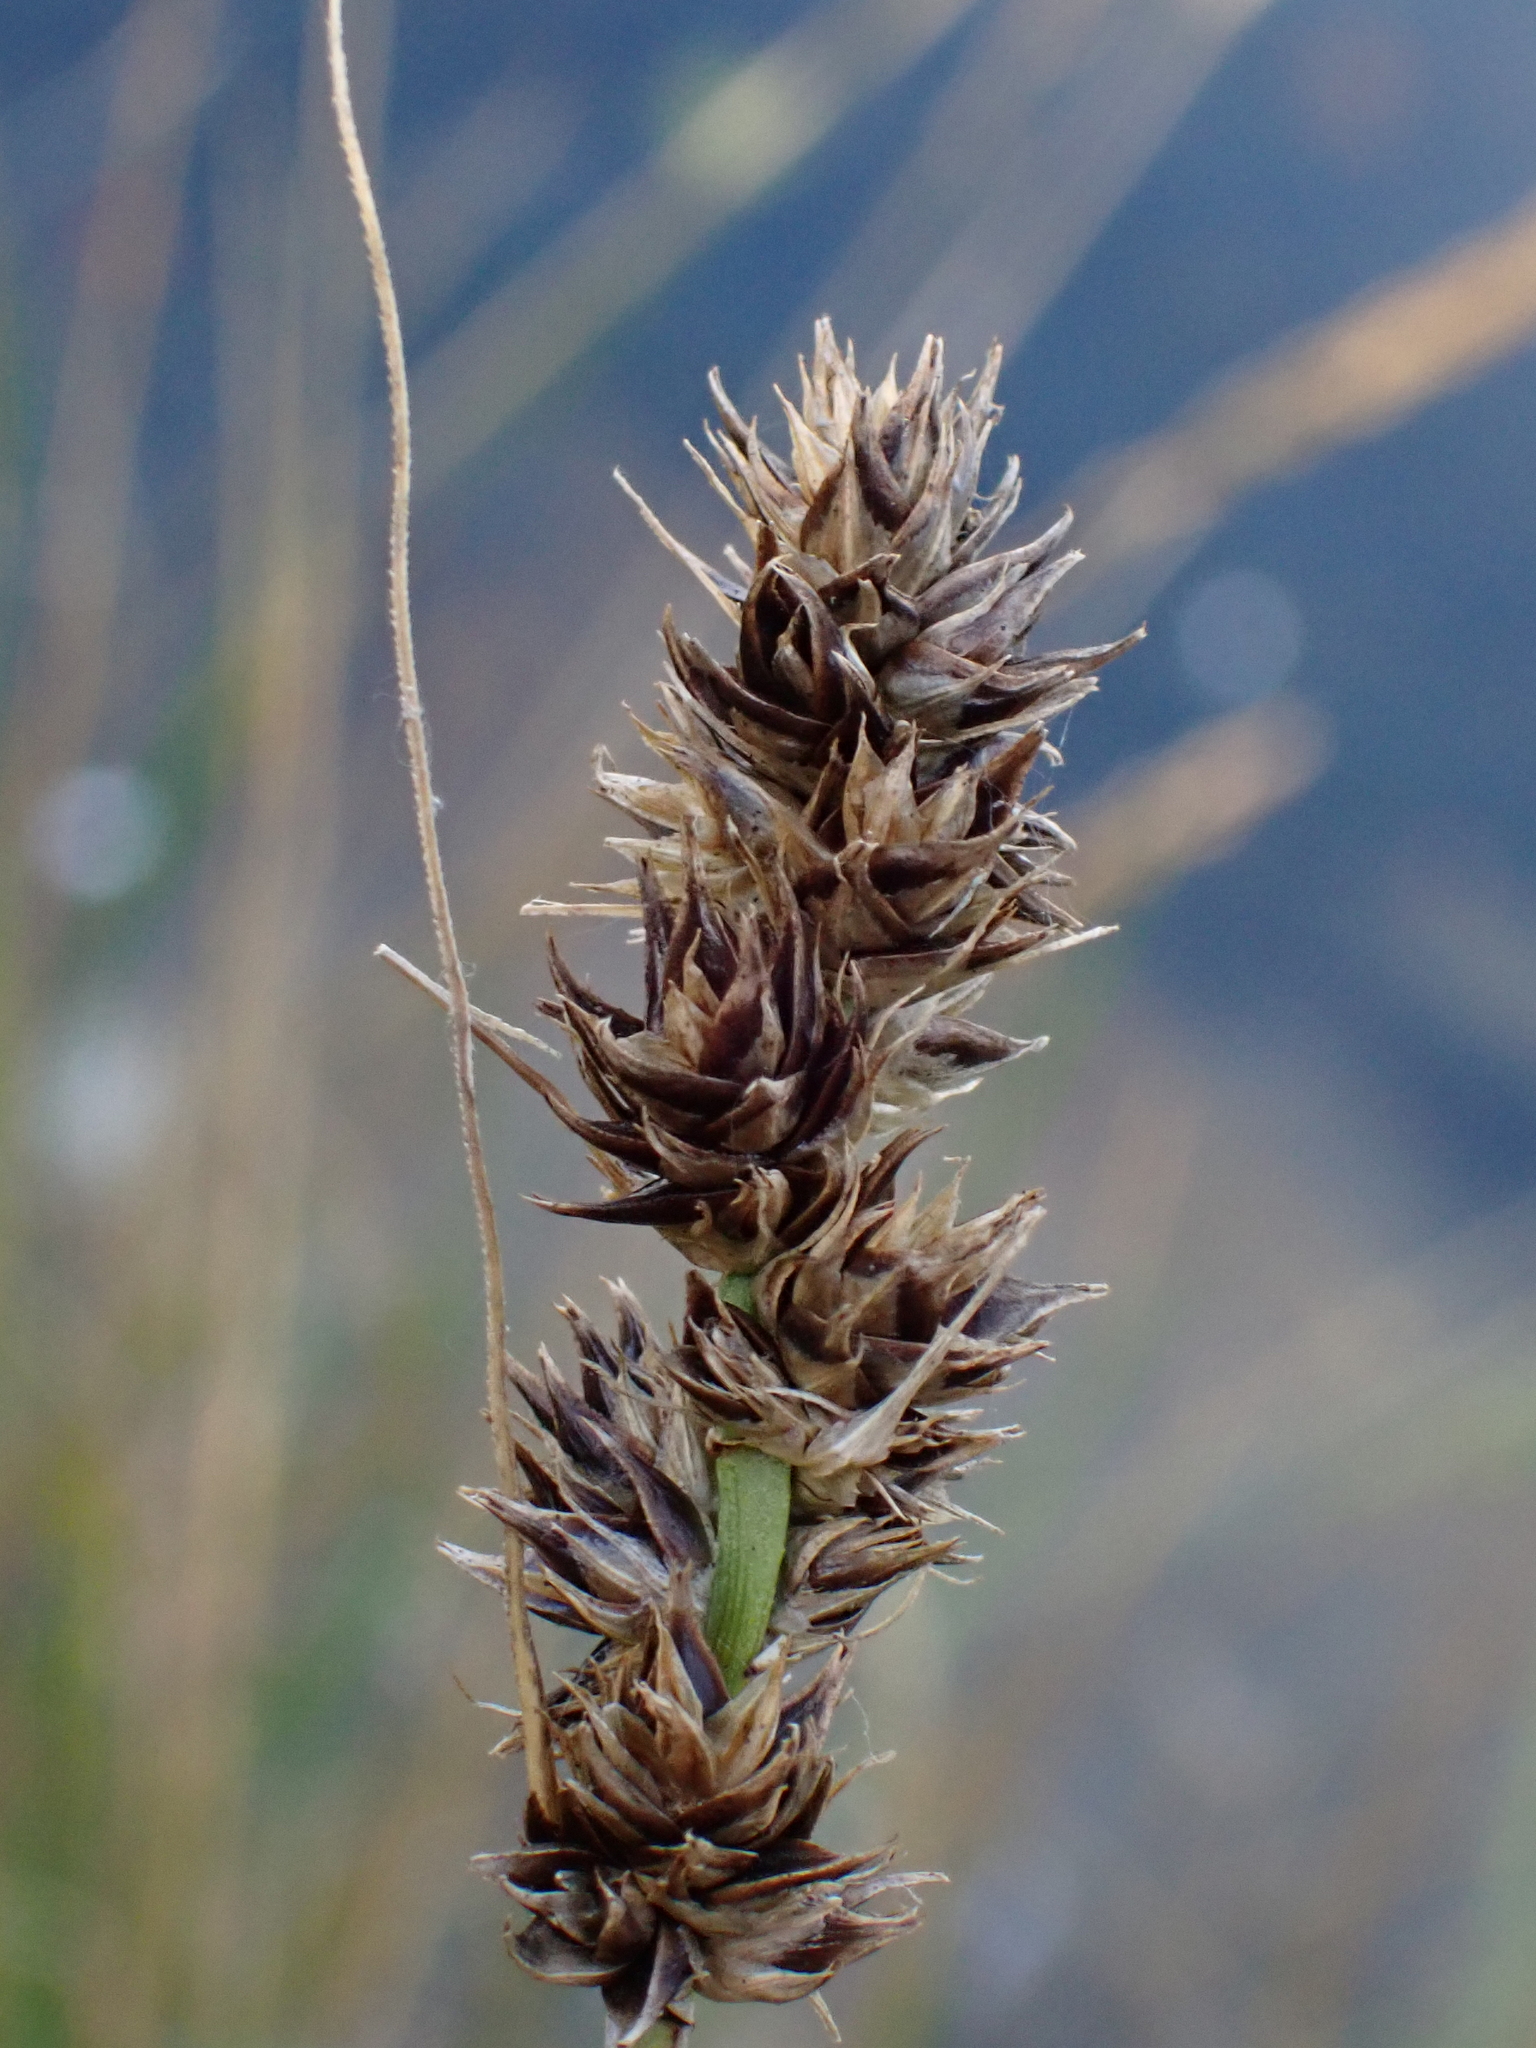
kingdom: Plantae
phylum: Tracheophyta
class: Liliopsida
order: Poales
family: Cyperaceae
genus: Carex
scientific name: Carex otrubae
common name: False fox-sedge
